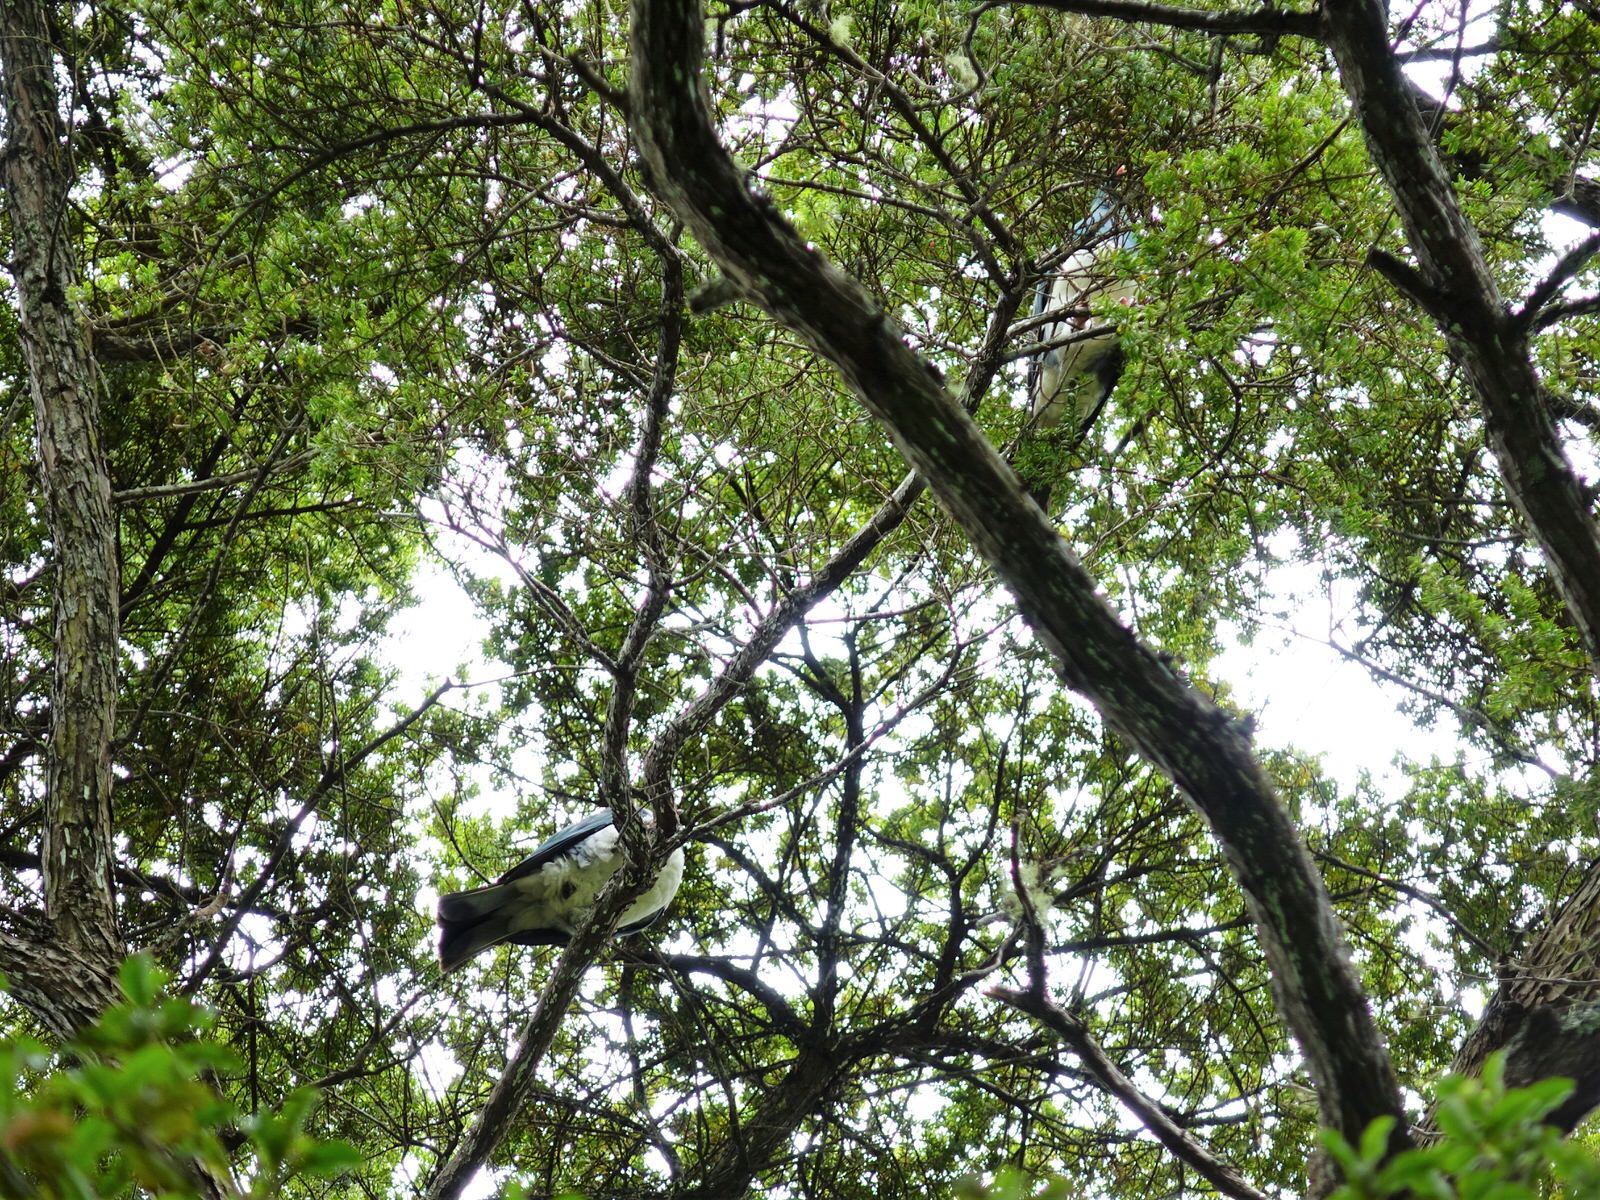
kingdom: Animalia
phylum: Chordata
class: Aves
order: Columbiformes
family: Columbidae
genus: Hemiphaga
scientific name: Hemiphaga novaeseelandiae
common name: New zealand pigeon
